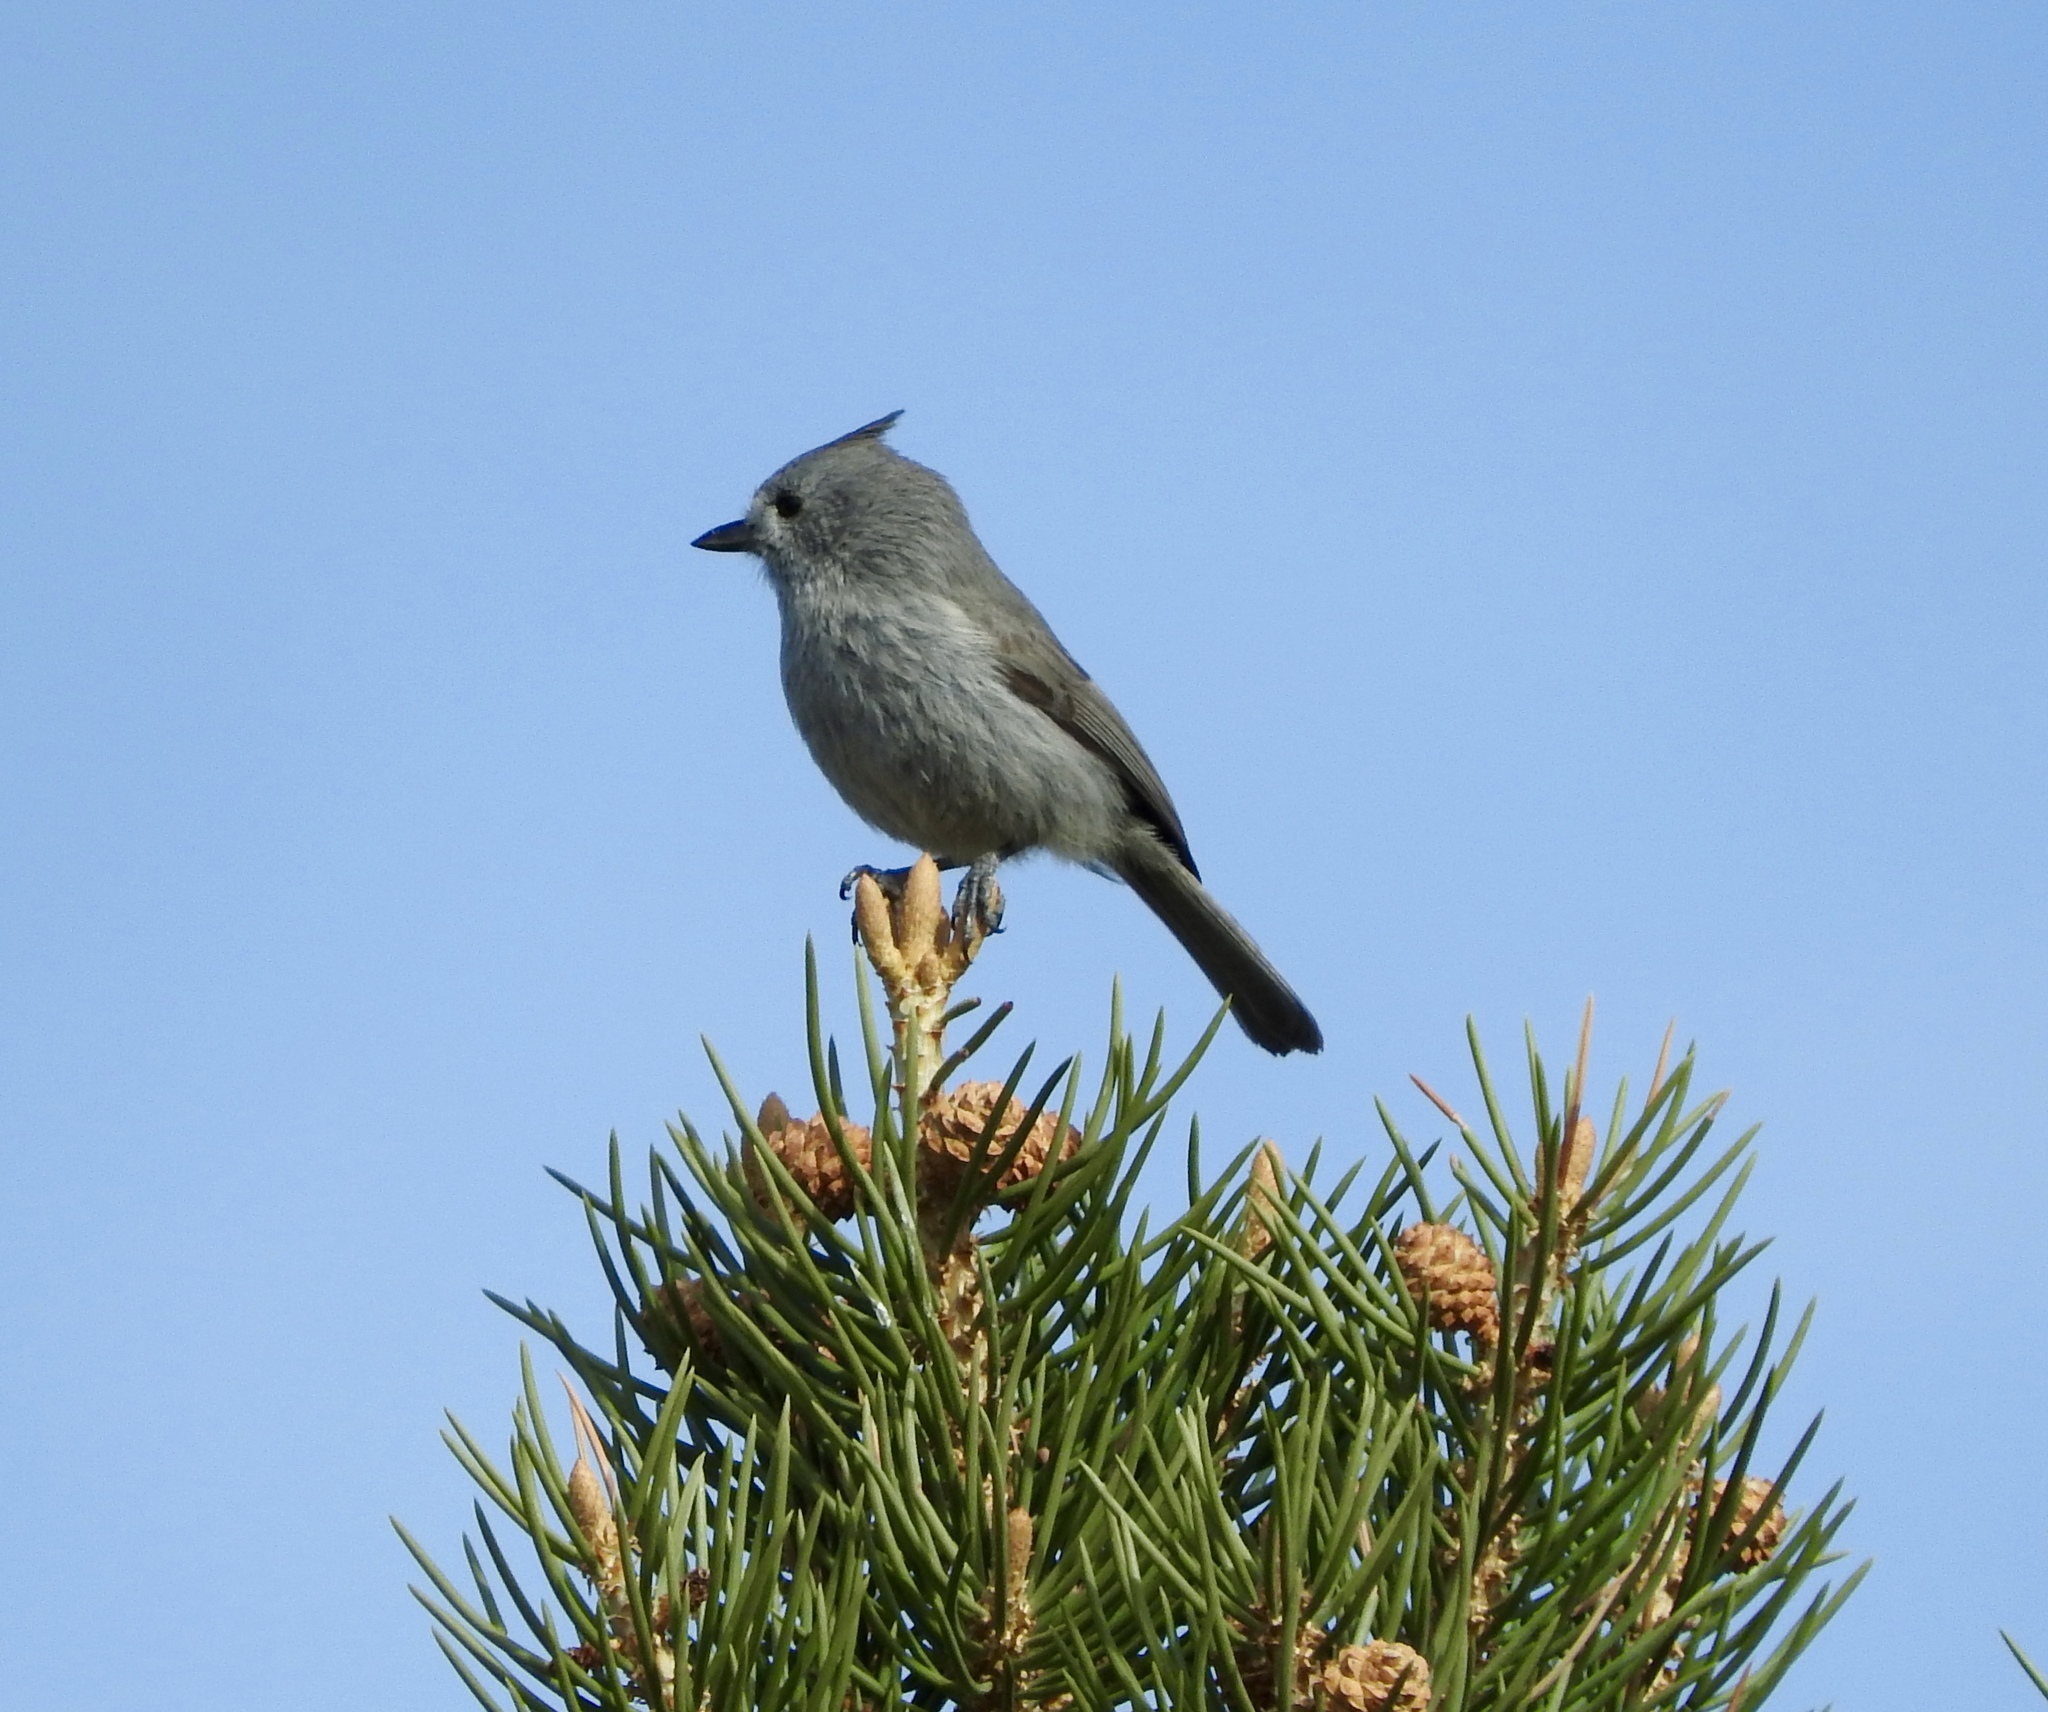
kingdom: Animalia
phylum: Chordata
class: Aves
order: Passeriformes
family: Paridae
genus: Baeolophus
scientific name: Baeolophus ridgwayi
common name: Juniper titmouse
